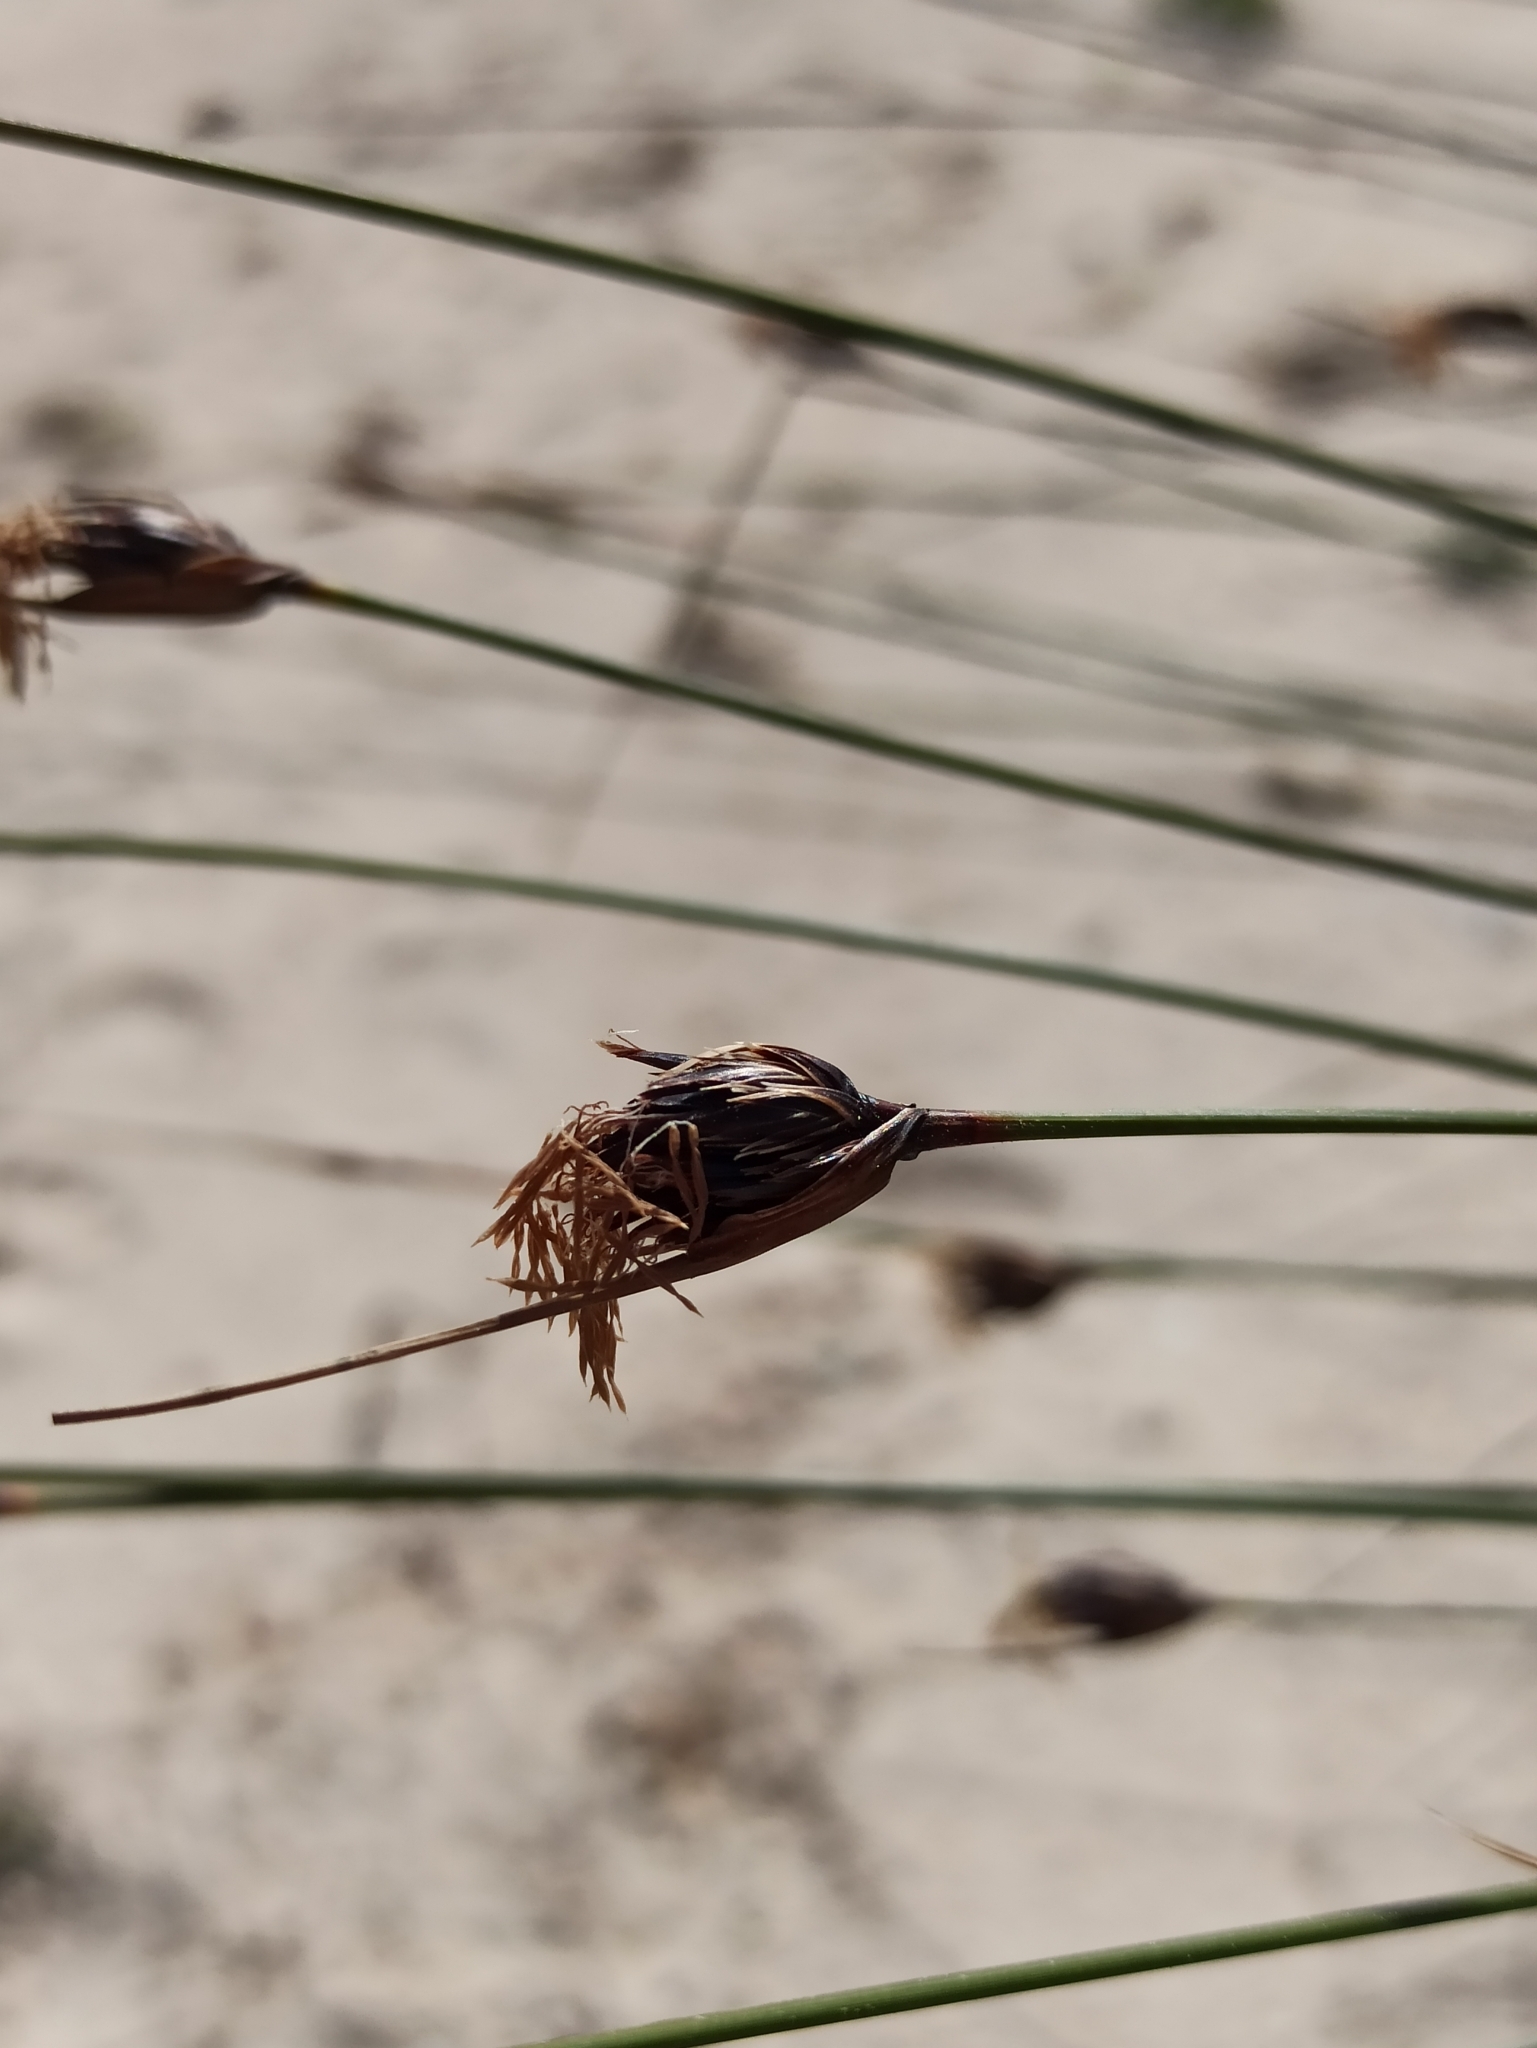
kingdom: Plantae
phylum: Tracheophyta
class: Liliopsida
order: Poales
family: Cyperaceae
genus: Schoenus
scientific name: Schoenus nigricans
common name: Black bog-rush
